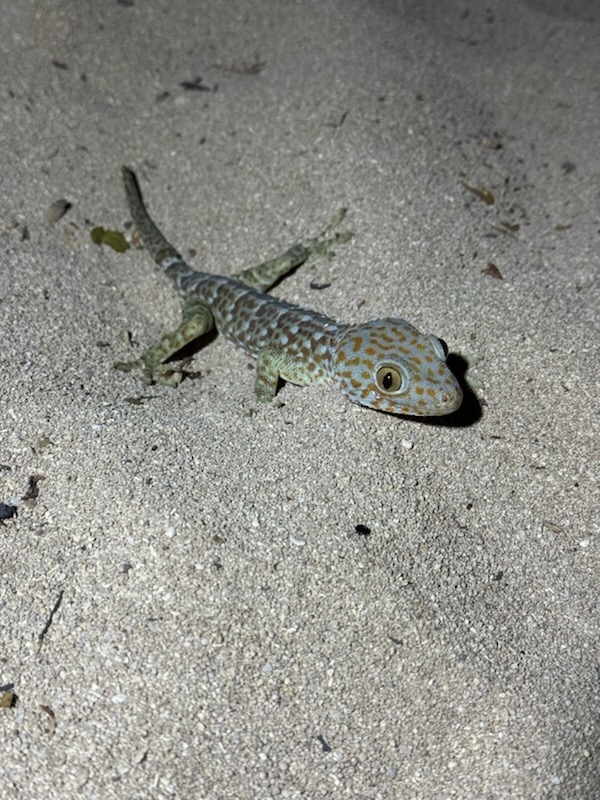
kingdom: Animalia
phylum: Chordata
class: Squamata
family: Gekkonidae
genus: Gekko
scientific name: Gekko gecko
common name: Tokay gecko
